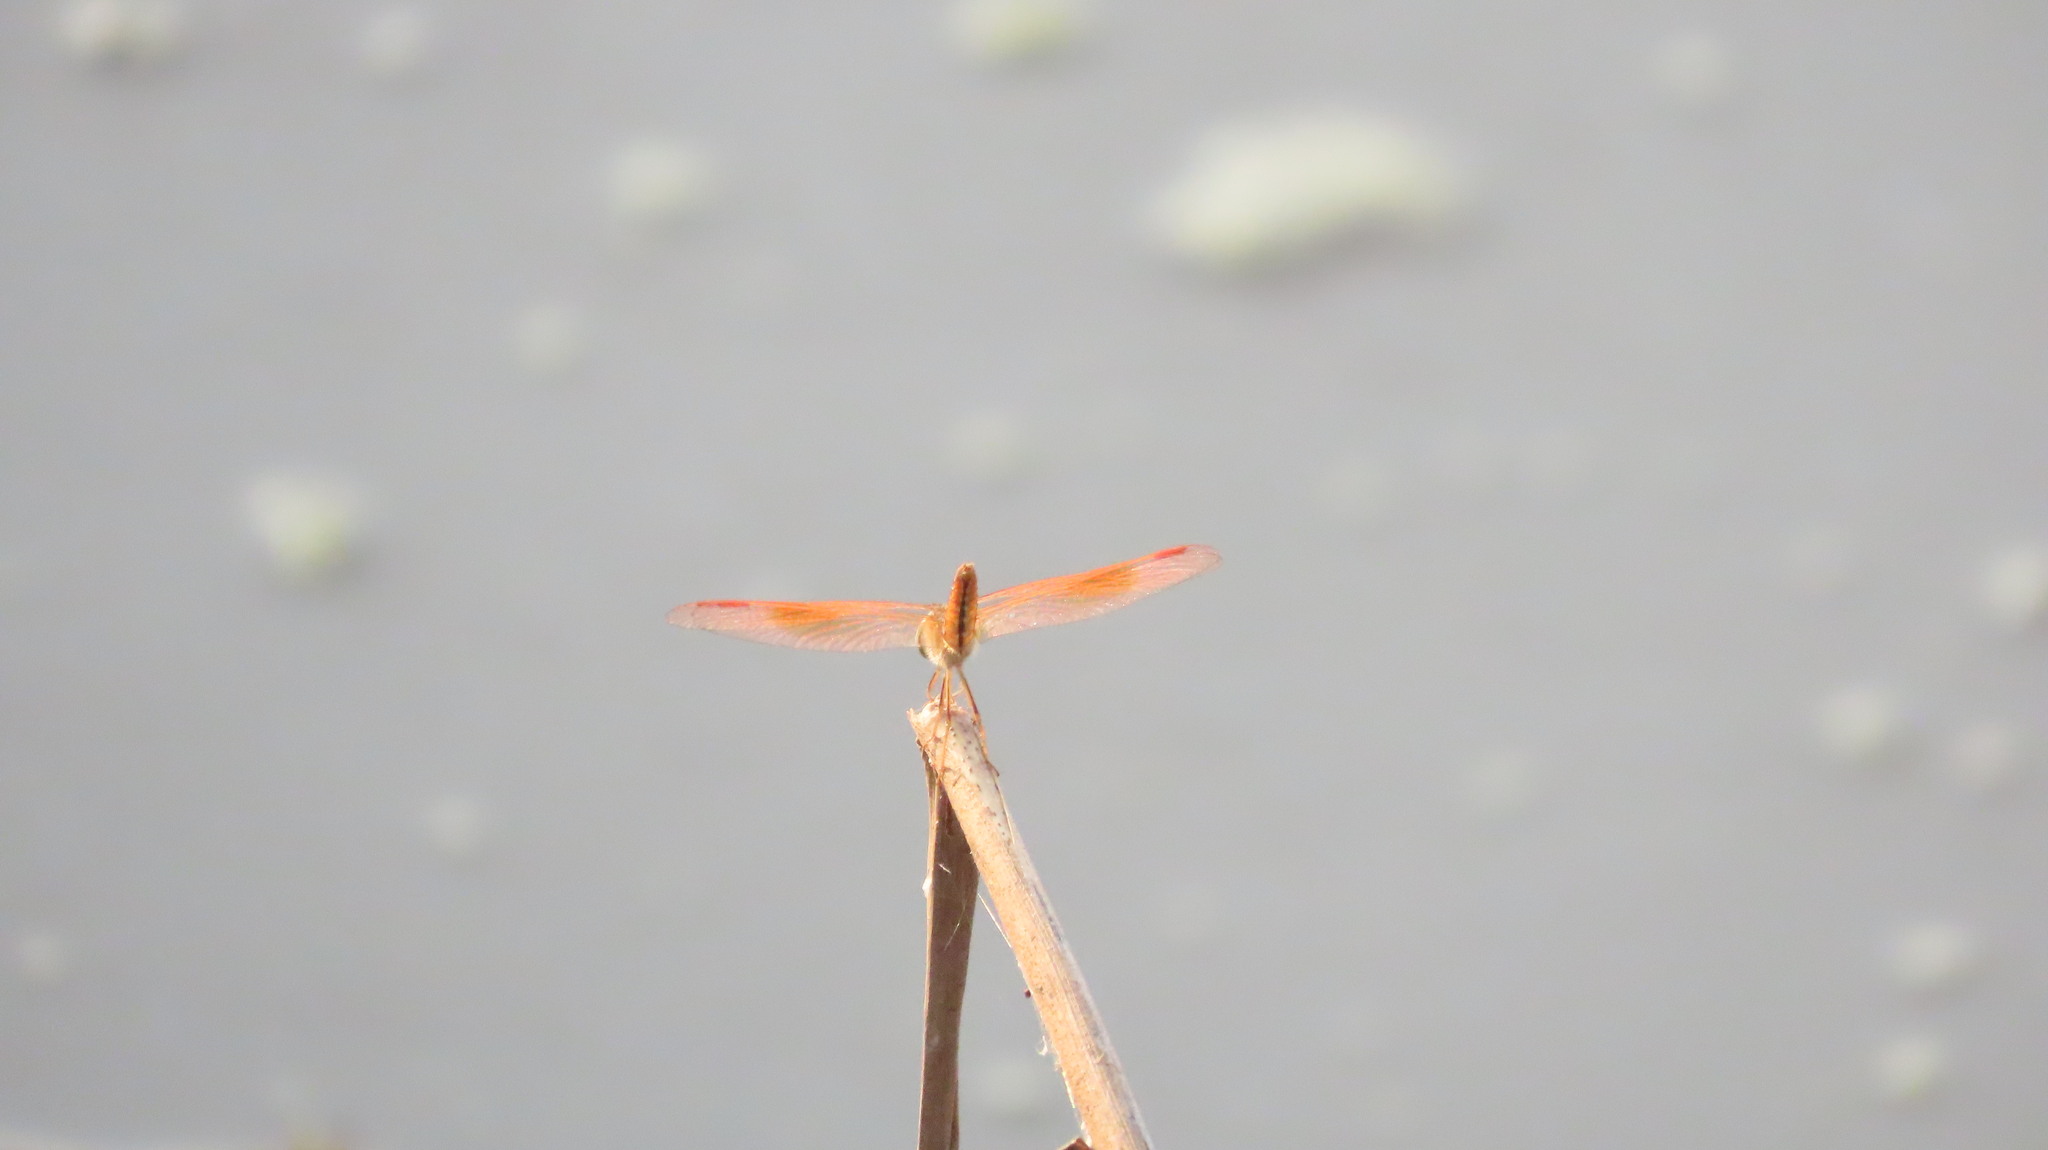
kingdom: Animalia
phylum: Arthropoda
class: Insecta
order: Odonata
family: Libellulidae
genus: Brachythemis
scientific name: Brachythemis contaminata
